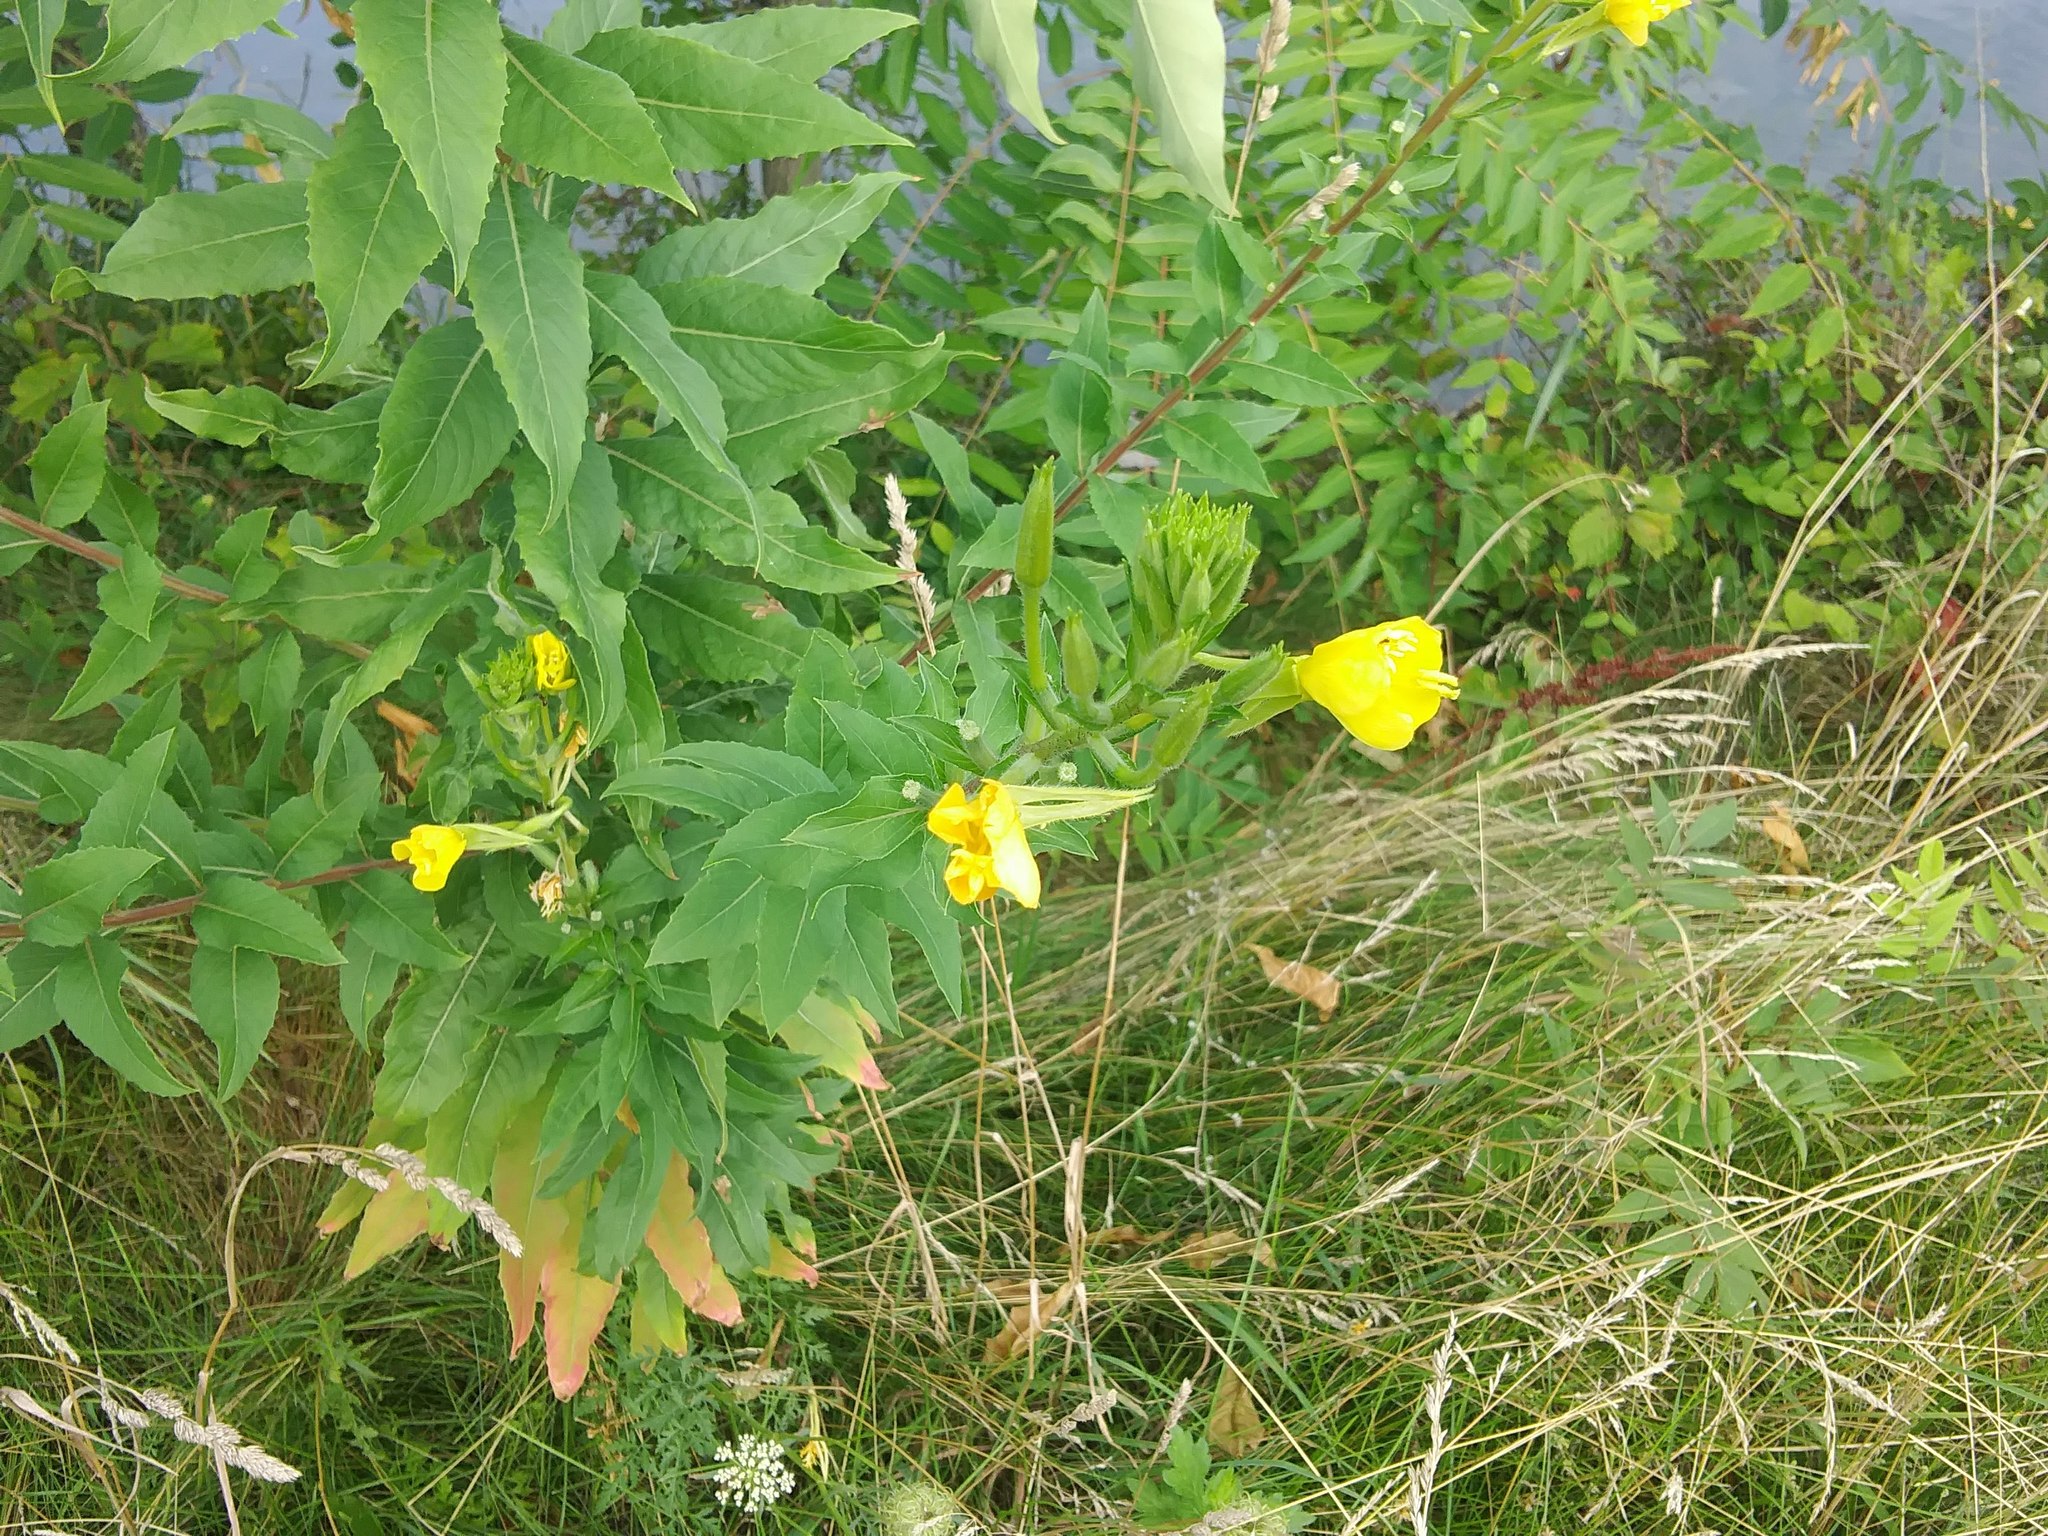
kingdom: Plantae
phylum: Tracheophyta
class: Magnoliopsida
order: Myrtales
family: Onagraceae
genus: Oenothera
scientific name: Oenothera biennis
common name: Common evening-primrose
